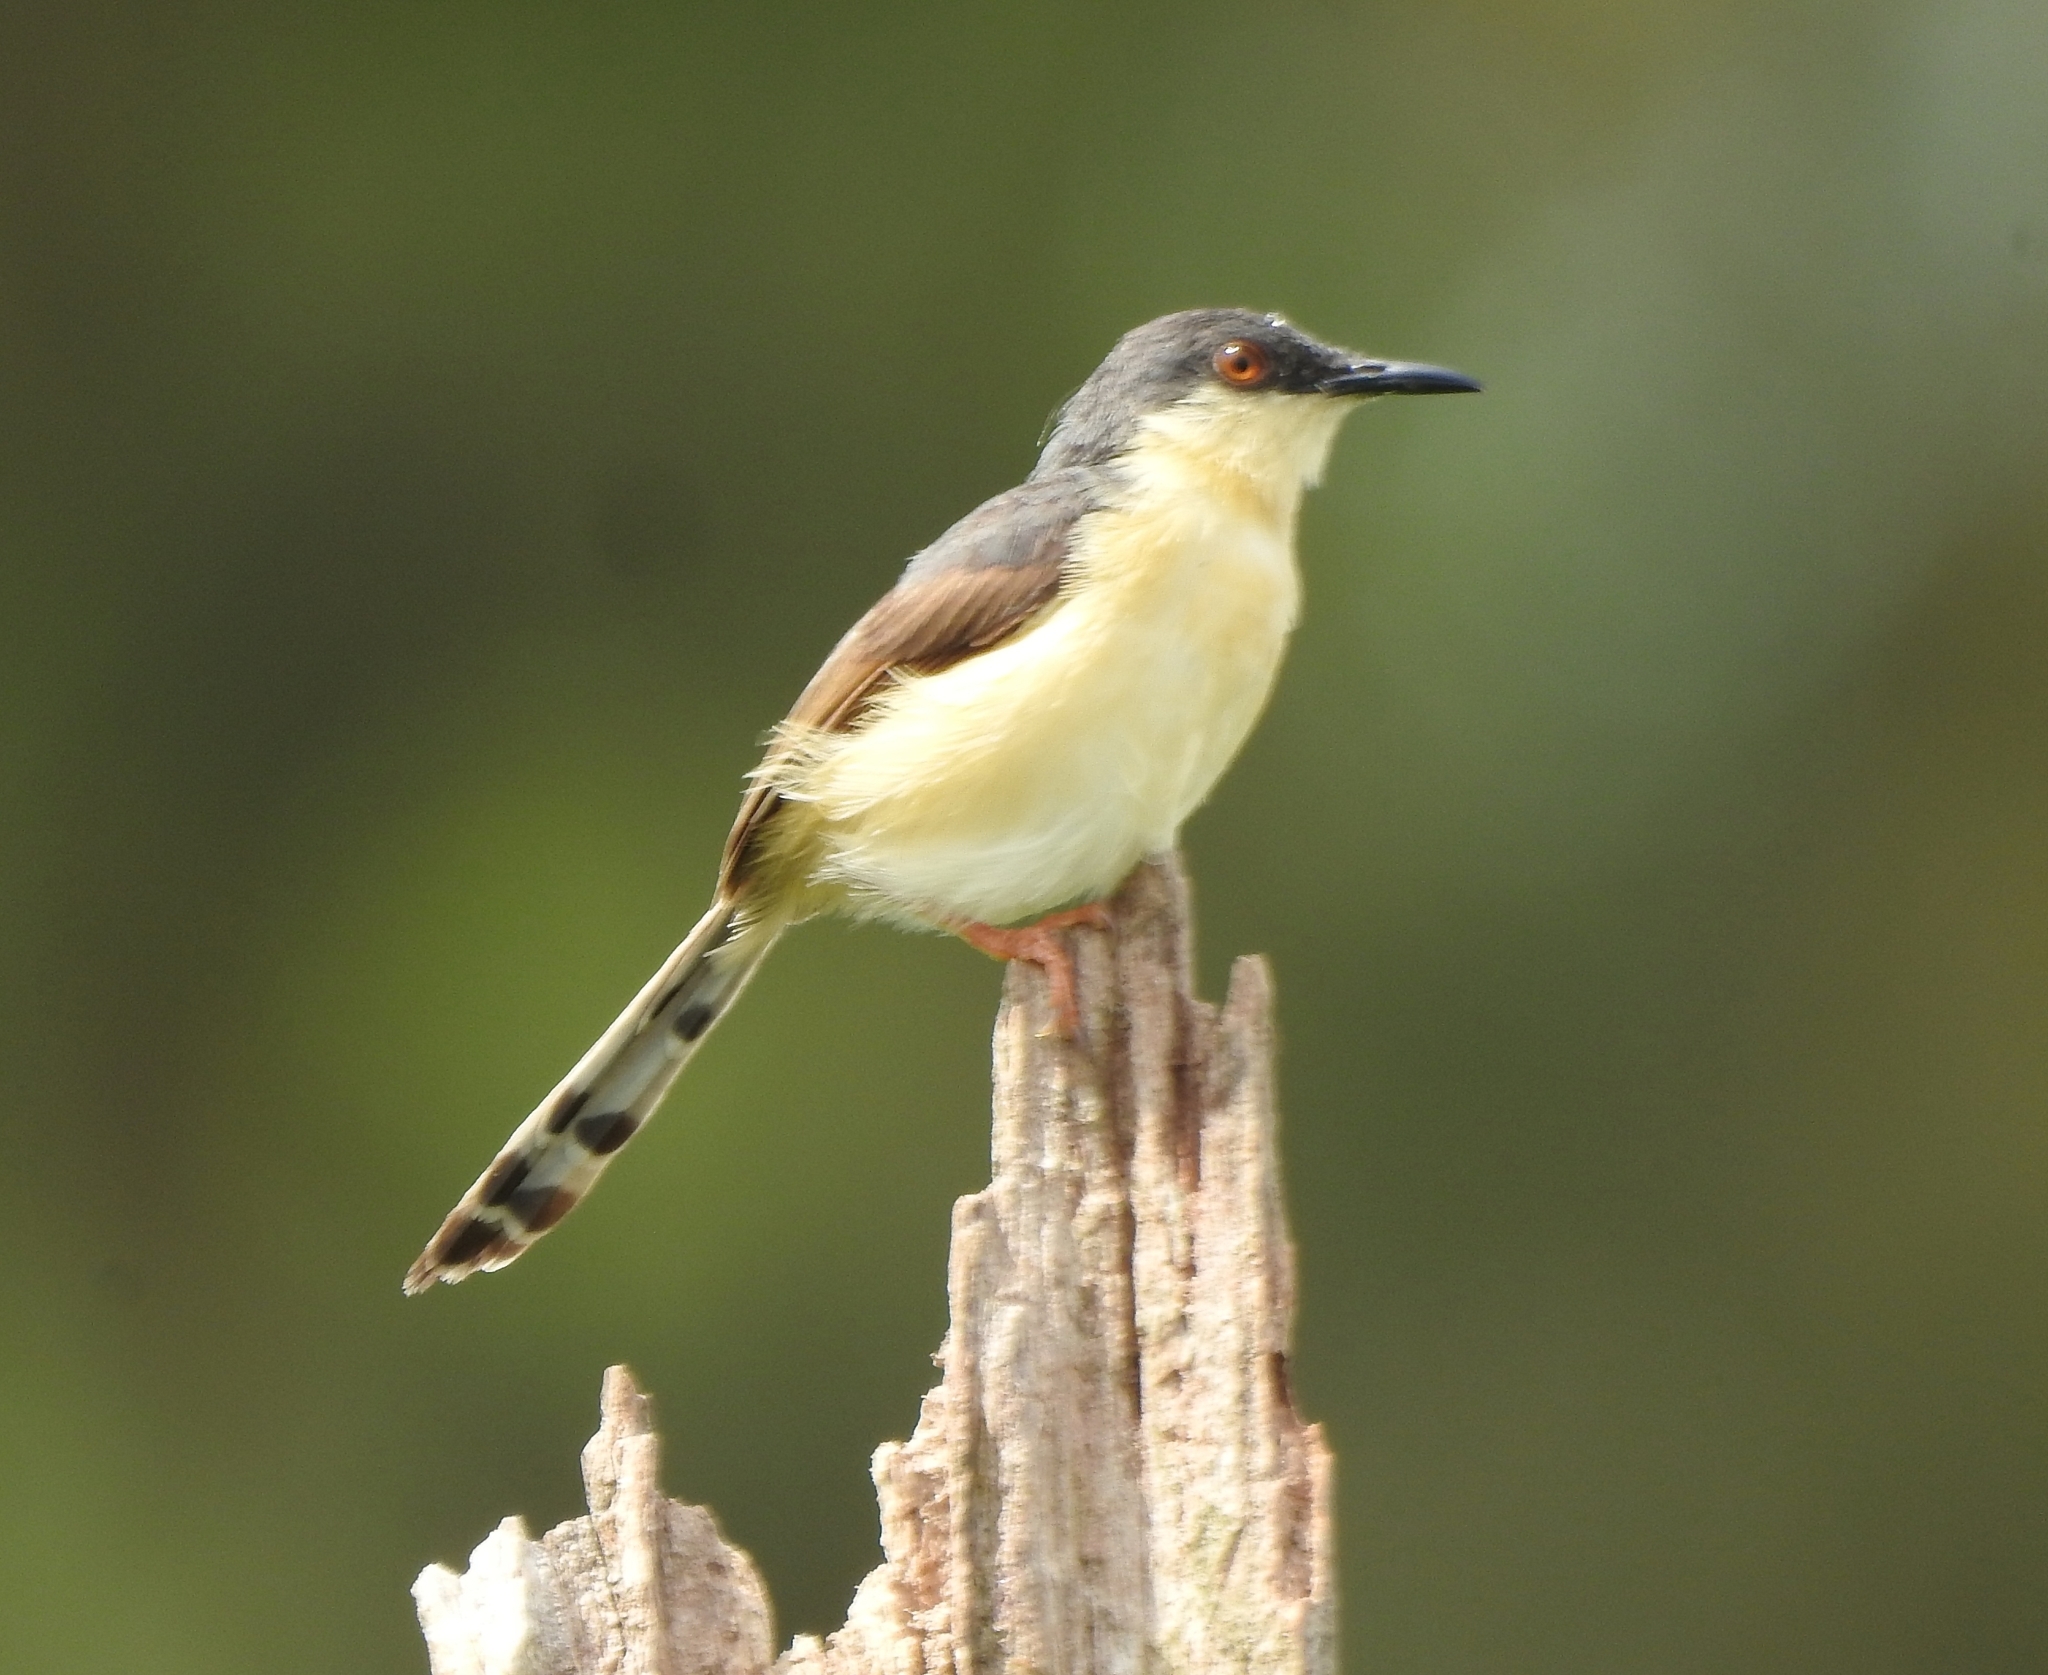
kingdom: Animalia
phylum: Chordata
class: Aves
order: Passeriformes
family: Cisticolidae
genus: Prinia
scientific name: Prinia socialis
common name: Ashy prinia
